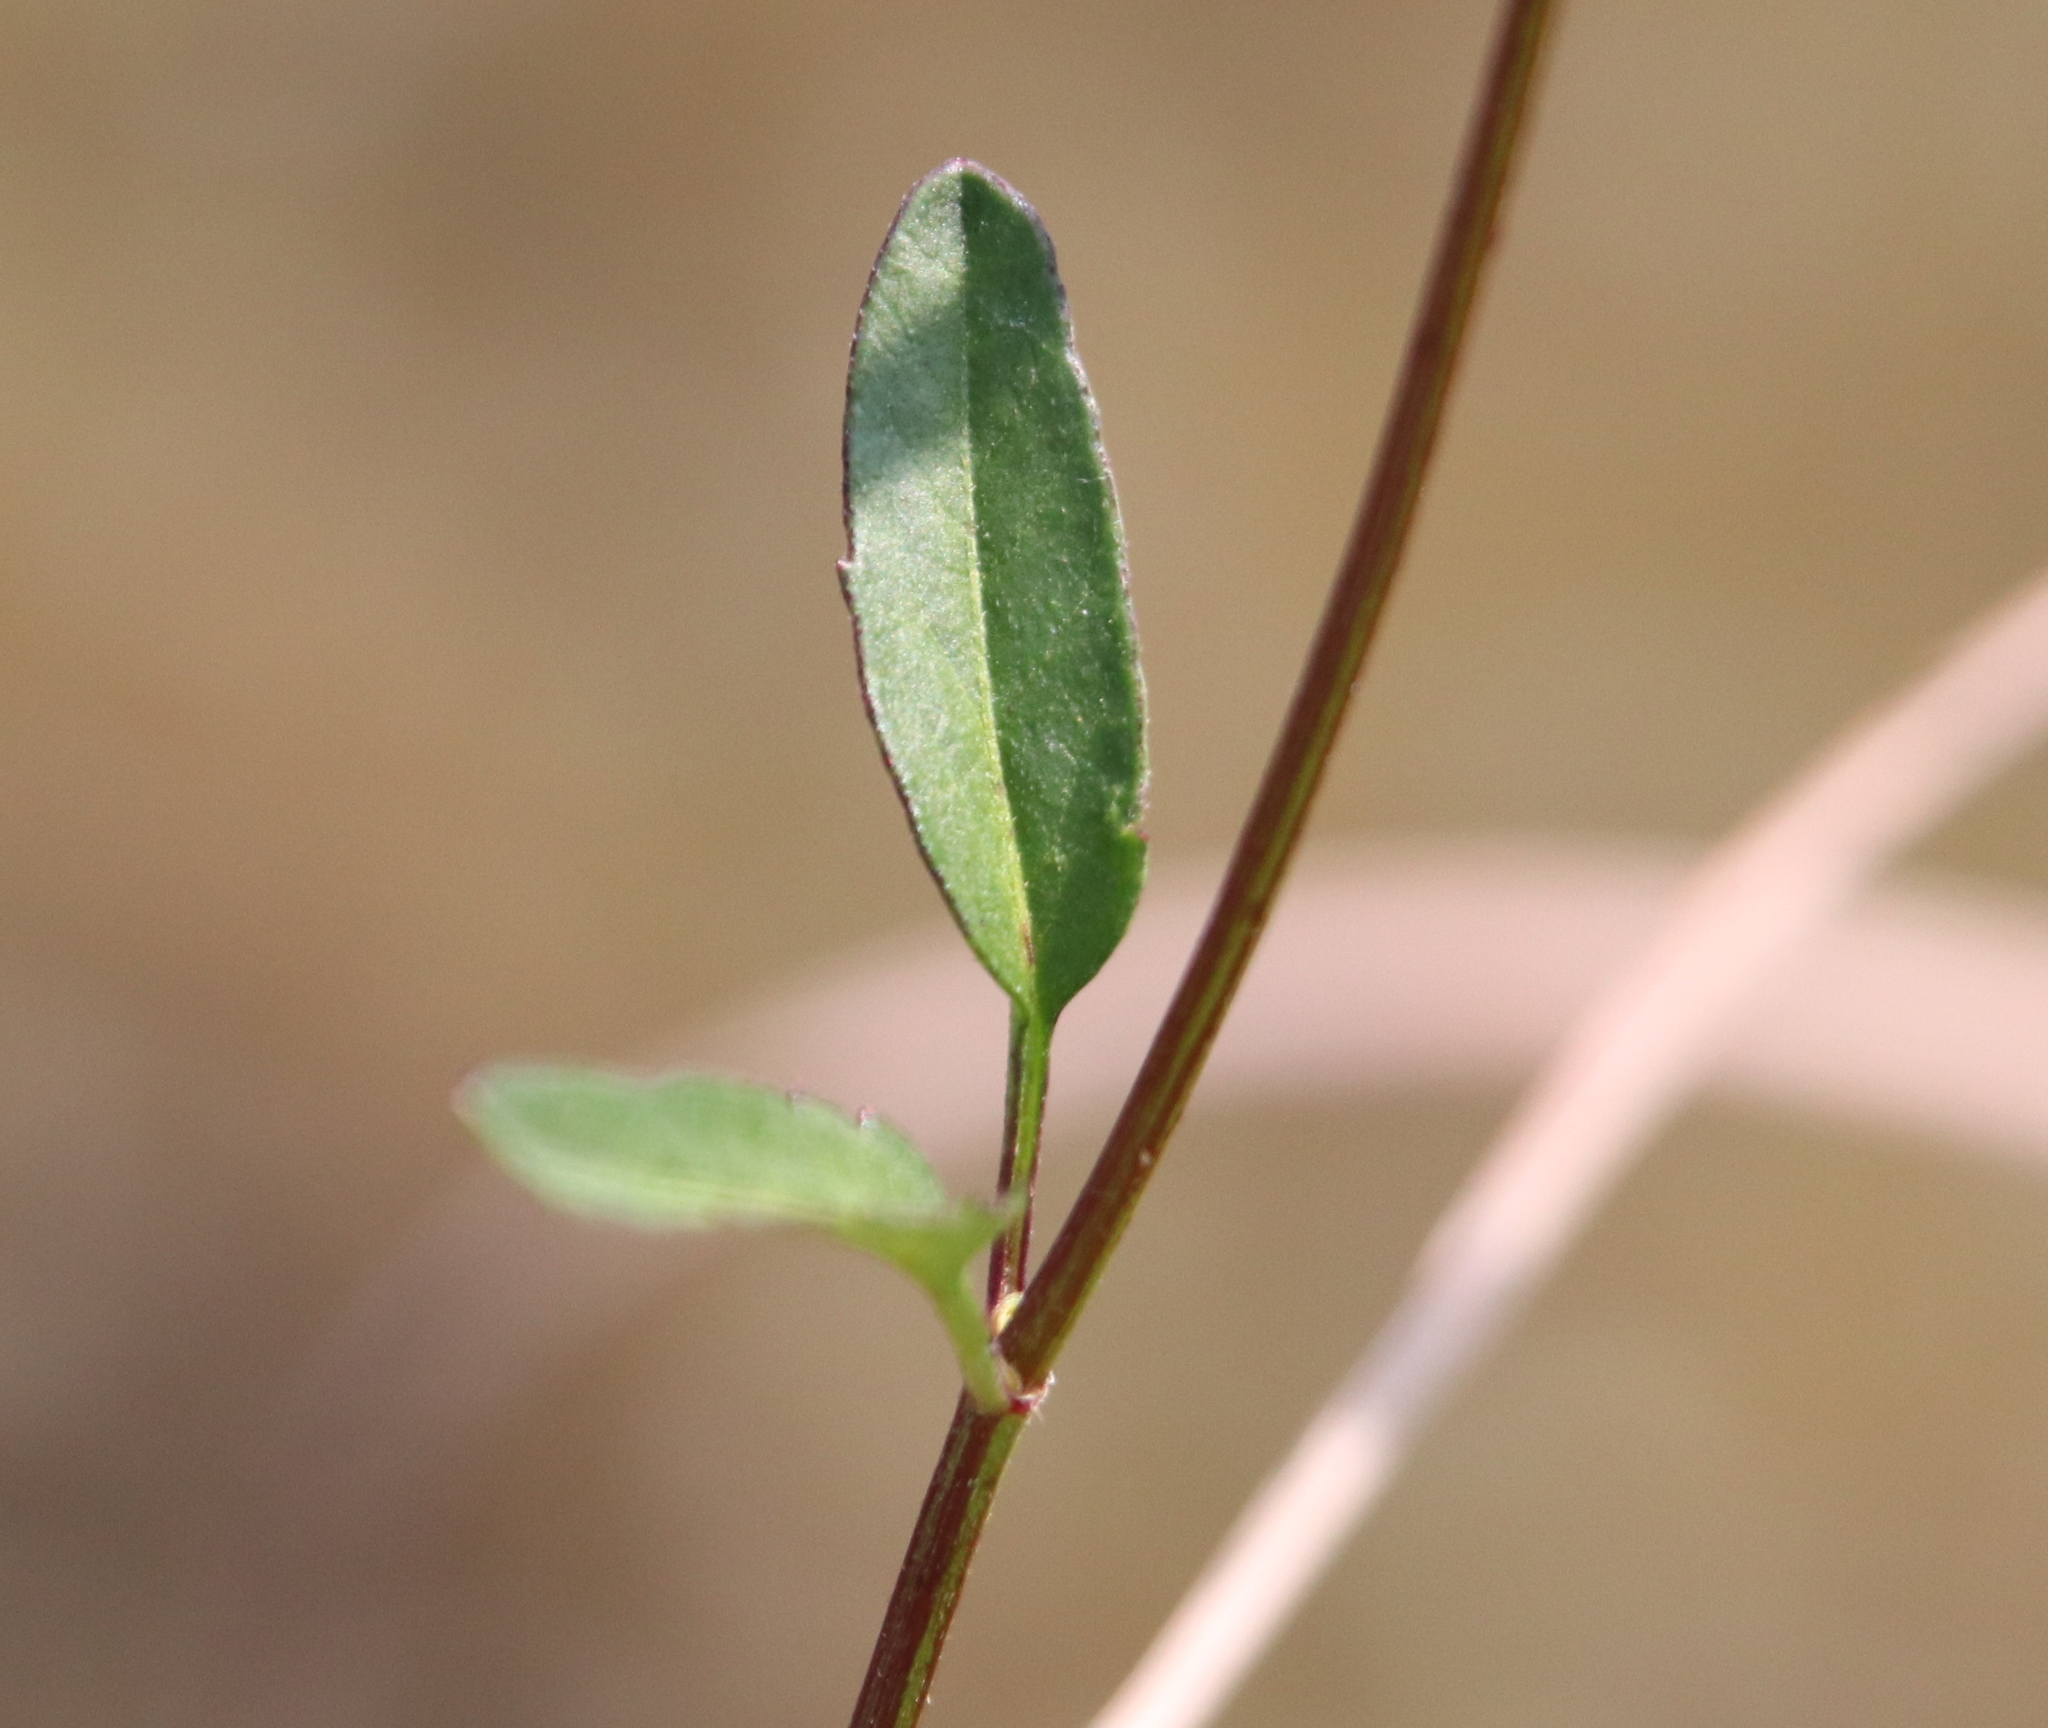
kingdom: Plantae
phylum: Tracheophyta
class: Magnoliopsida
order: Asterales
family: Asteraceae
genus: Bidens
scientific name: Bidens mitis
